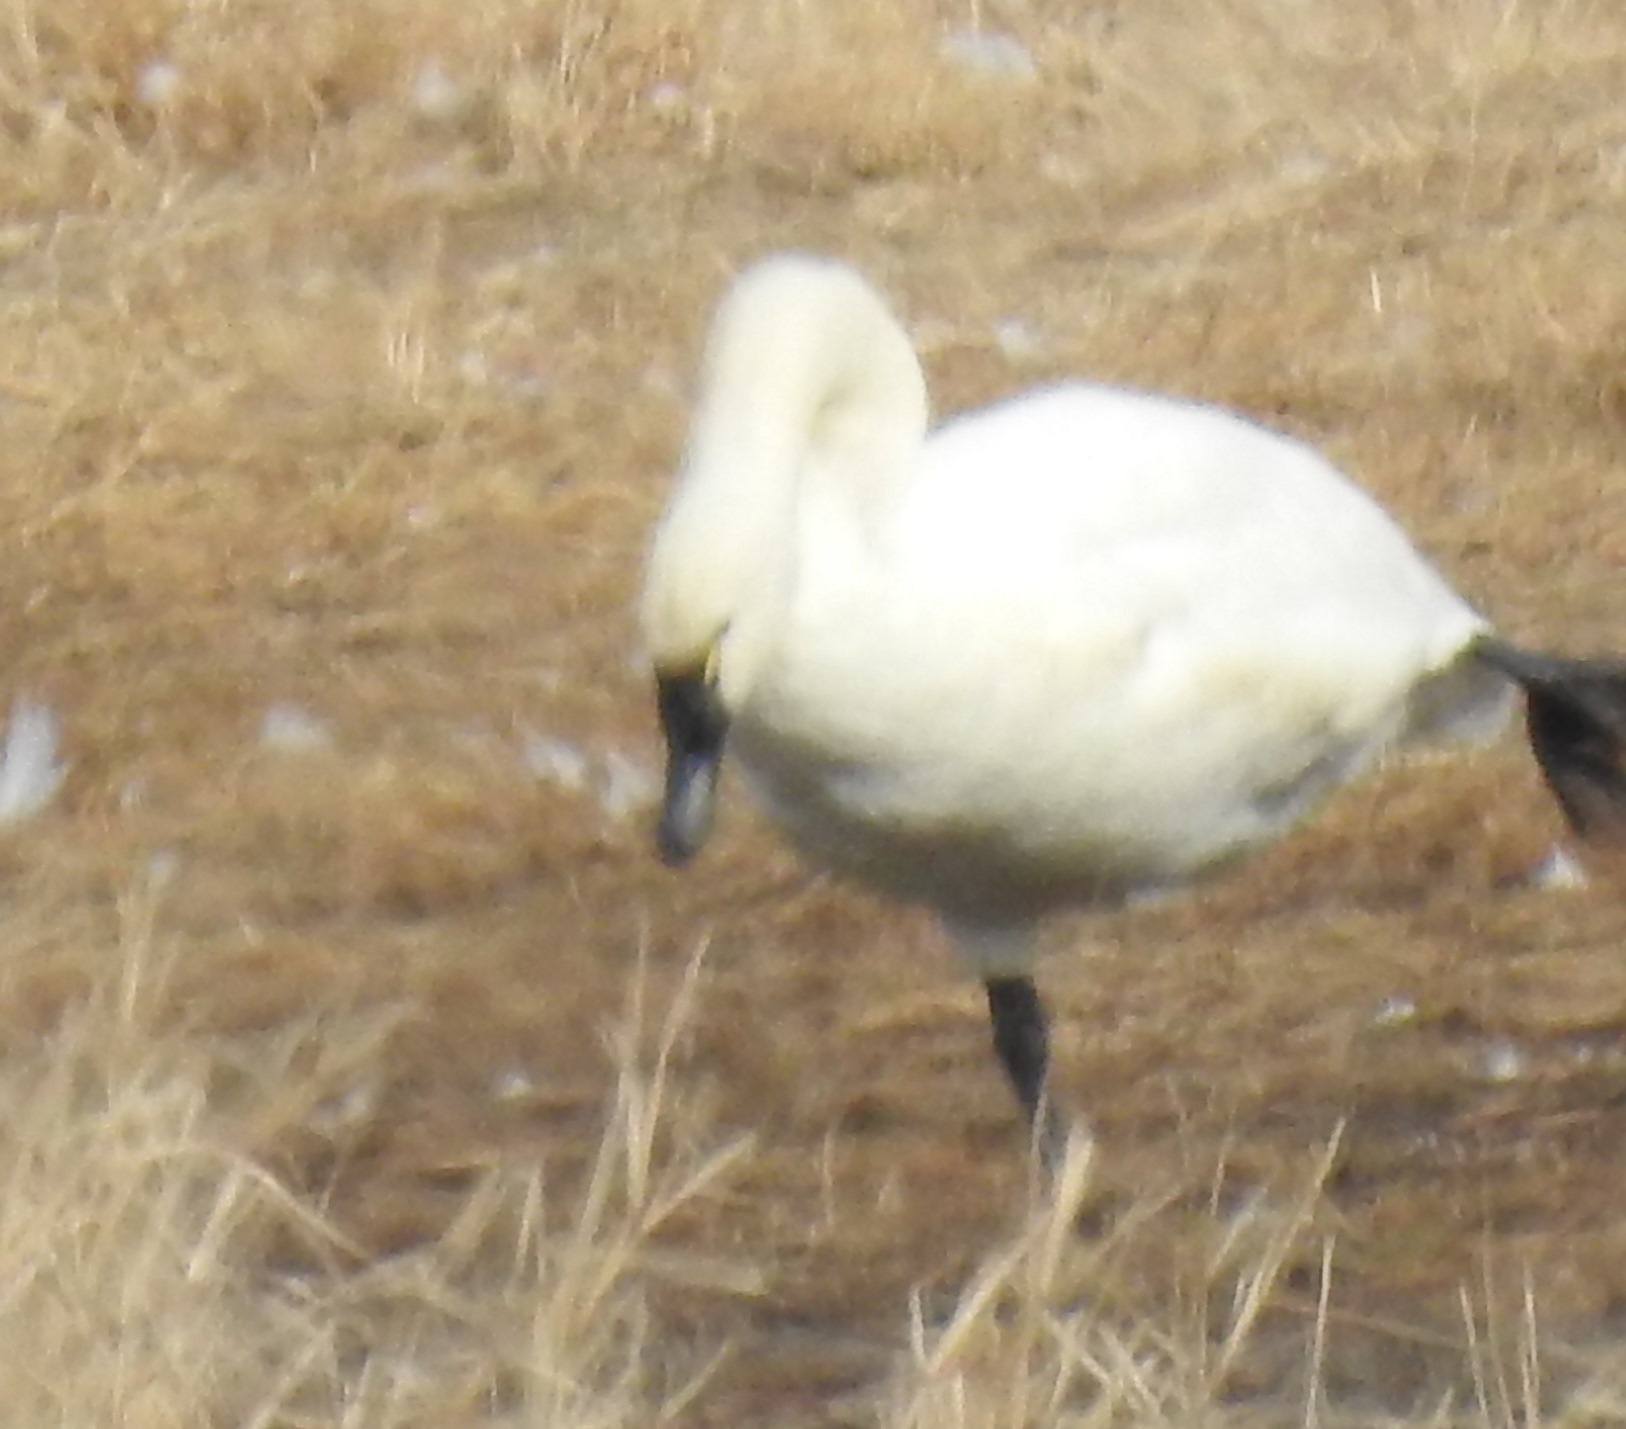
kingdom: Animalia
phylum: Chordata
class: Aves
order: Anseriformes
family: Anatidae
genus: Cygnus
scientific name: Cygnus columbianus
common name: Tundra swan
